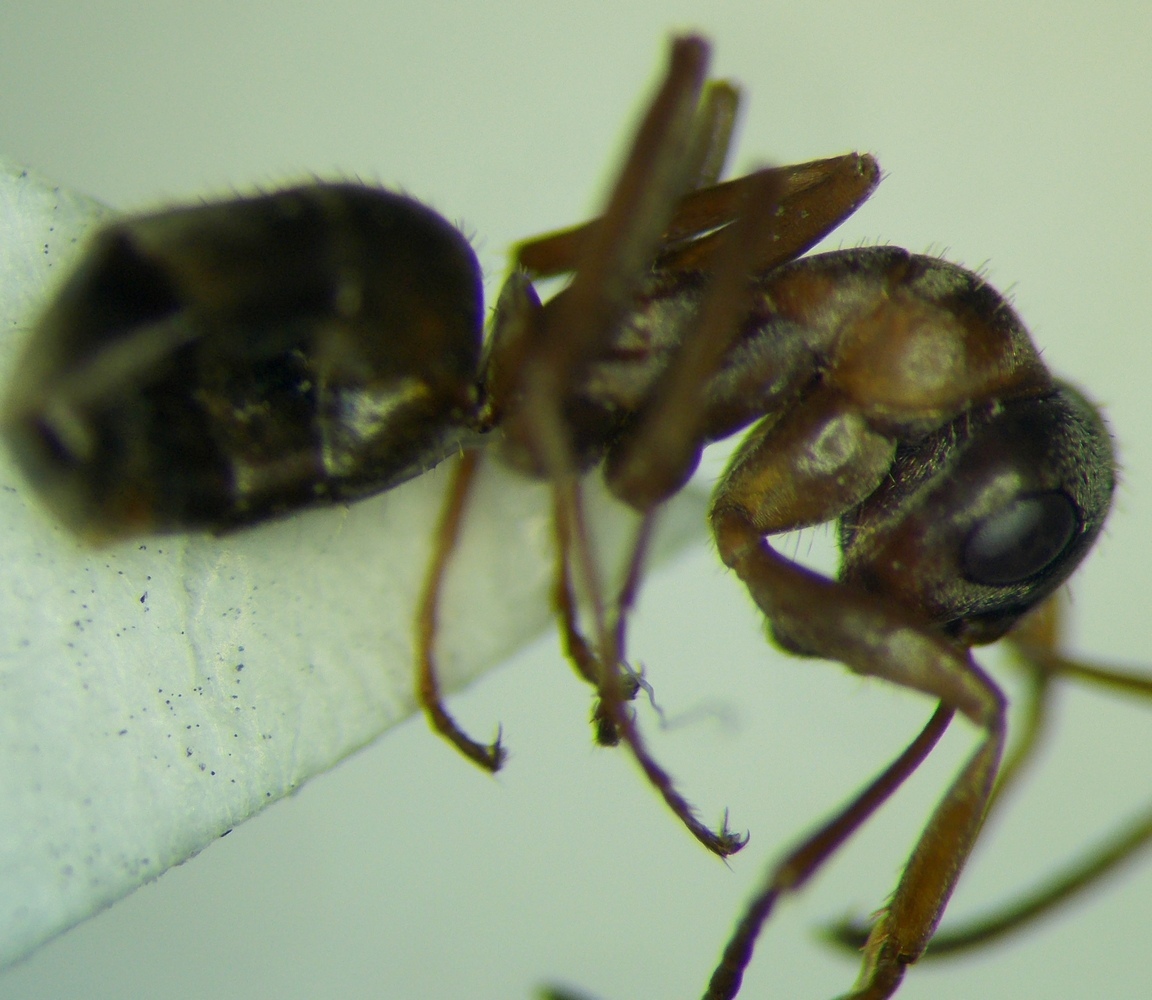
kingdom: Animalia
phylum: Arthropoda
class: Insecta
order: Hymenoptera
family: Formicidae
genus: Formica
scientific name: Formica cinerea
